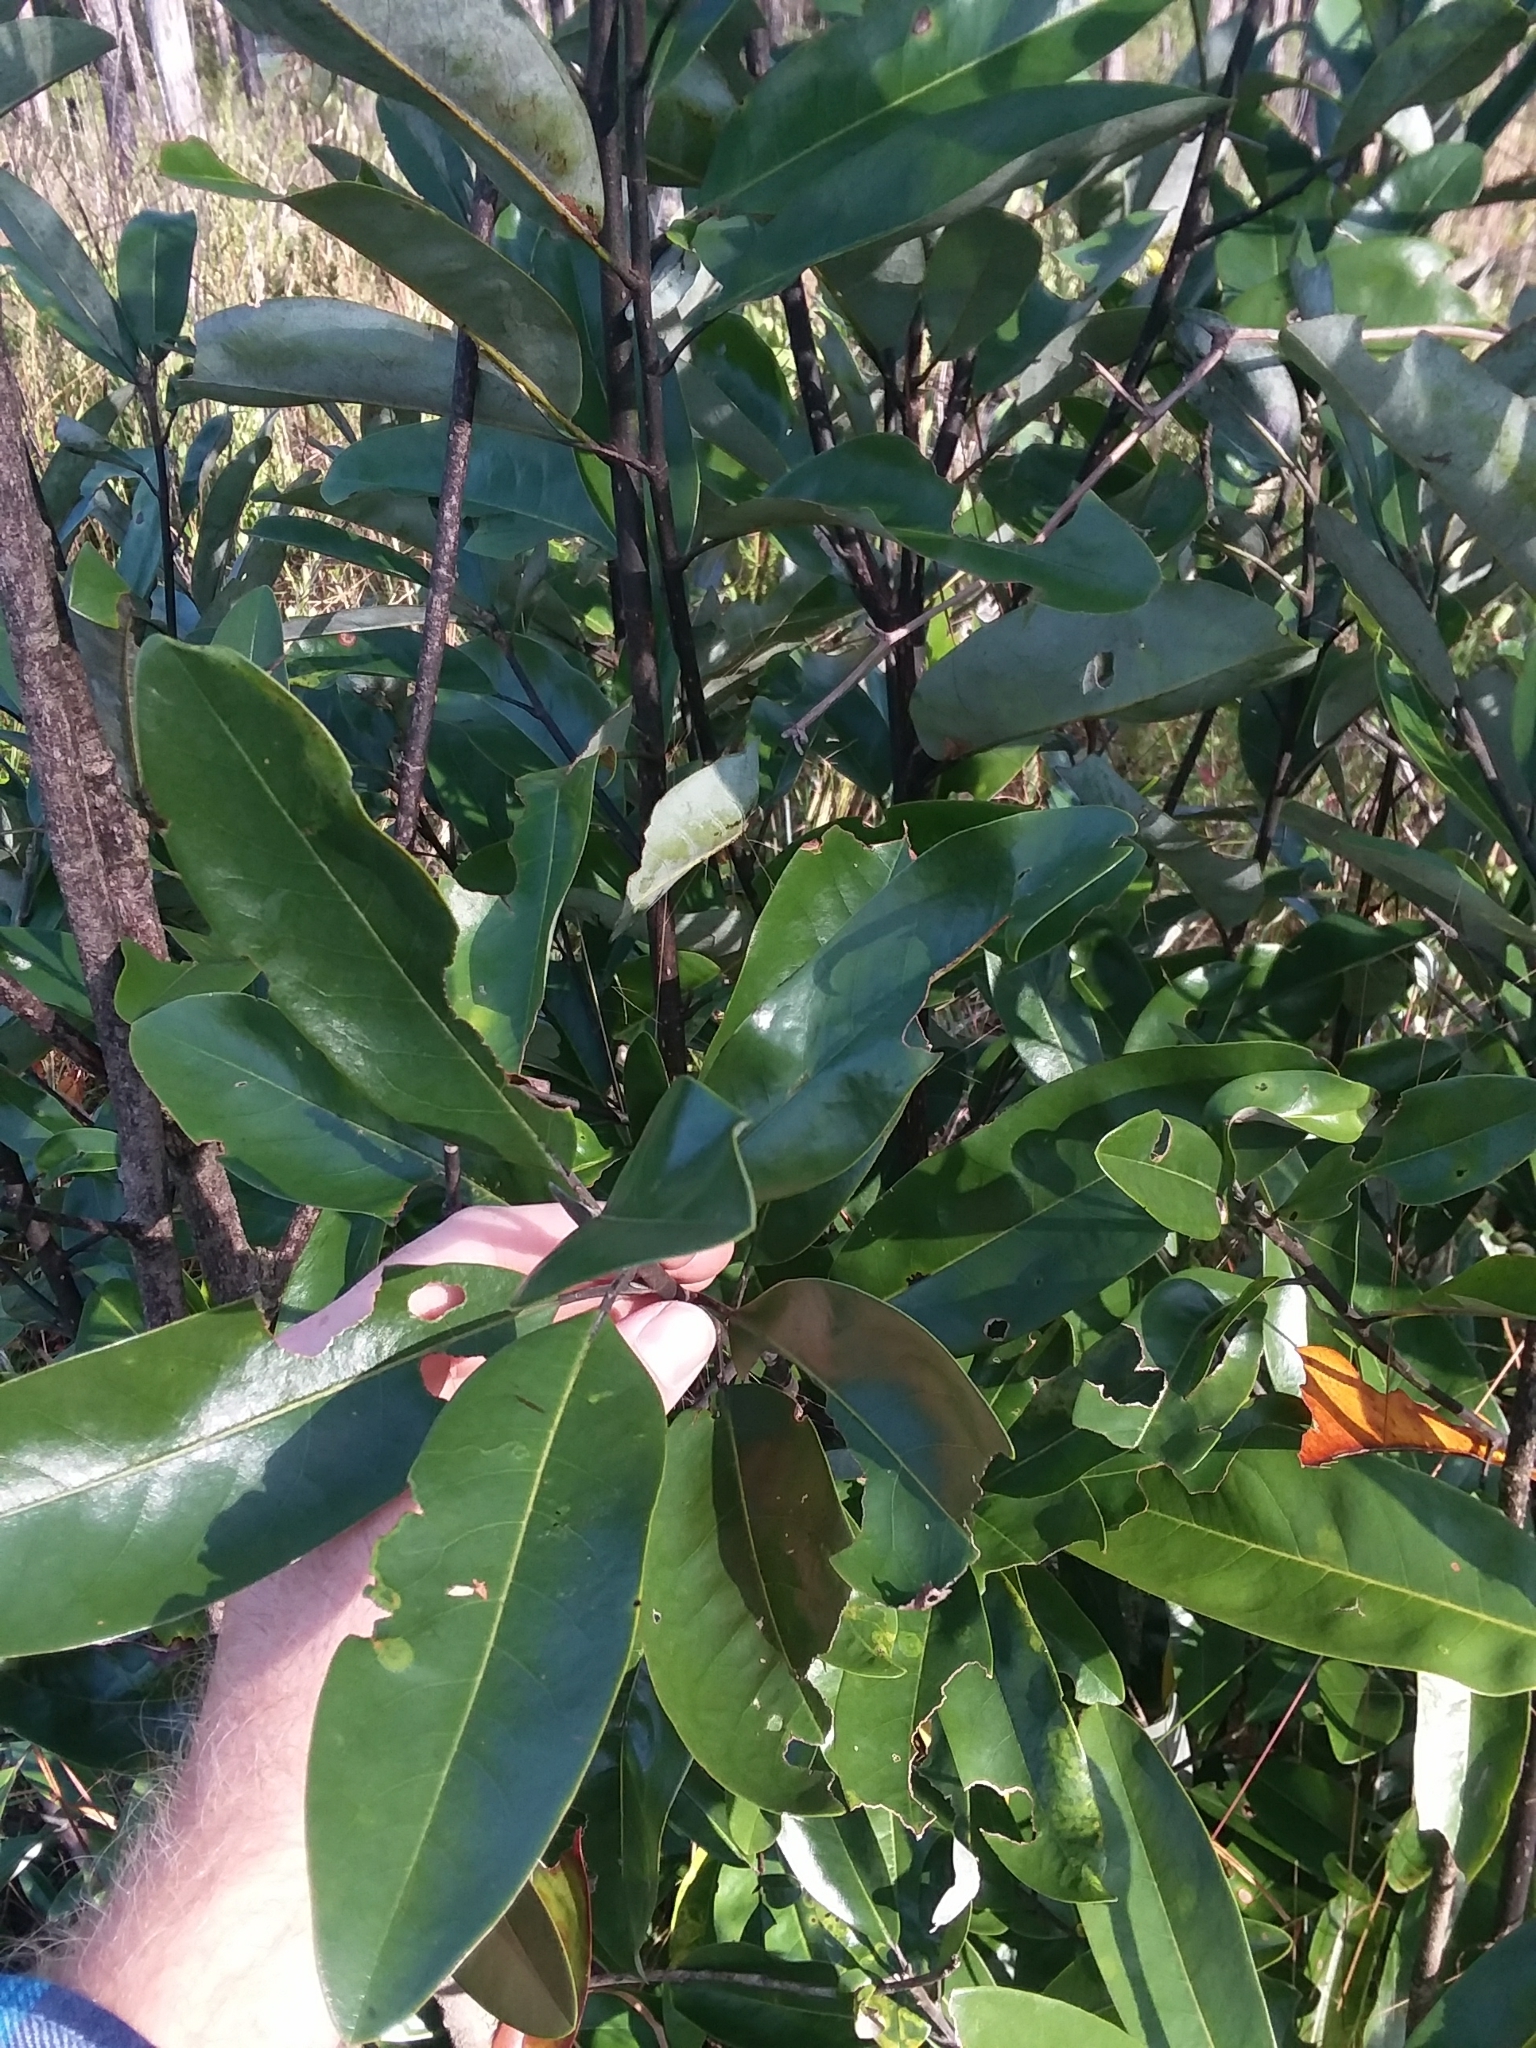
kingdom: Plantae
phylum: Tracheophyta
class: Magnoliopsida
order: Magnoliales
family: Magnoliaceae
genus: Magnolia
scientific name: Magnolia virginiana
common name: Swamp bay
